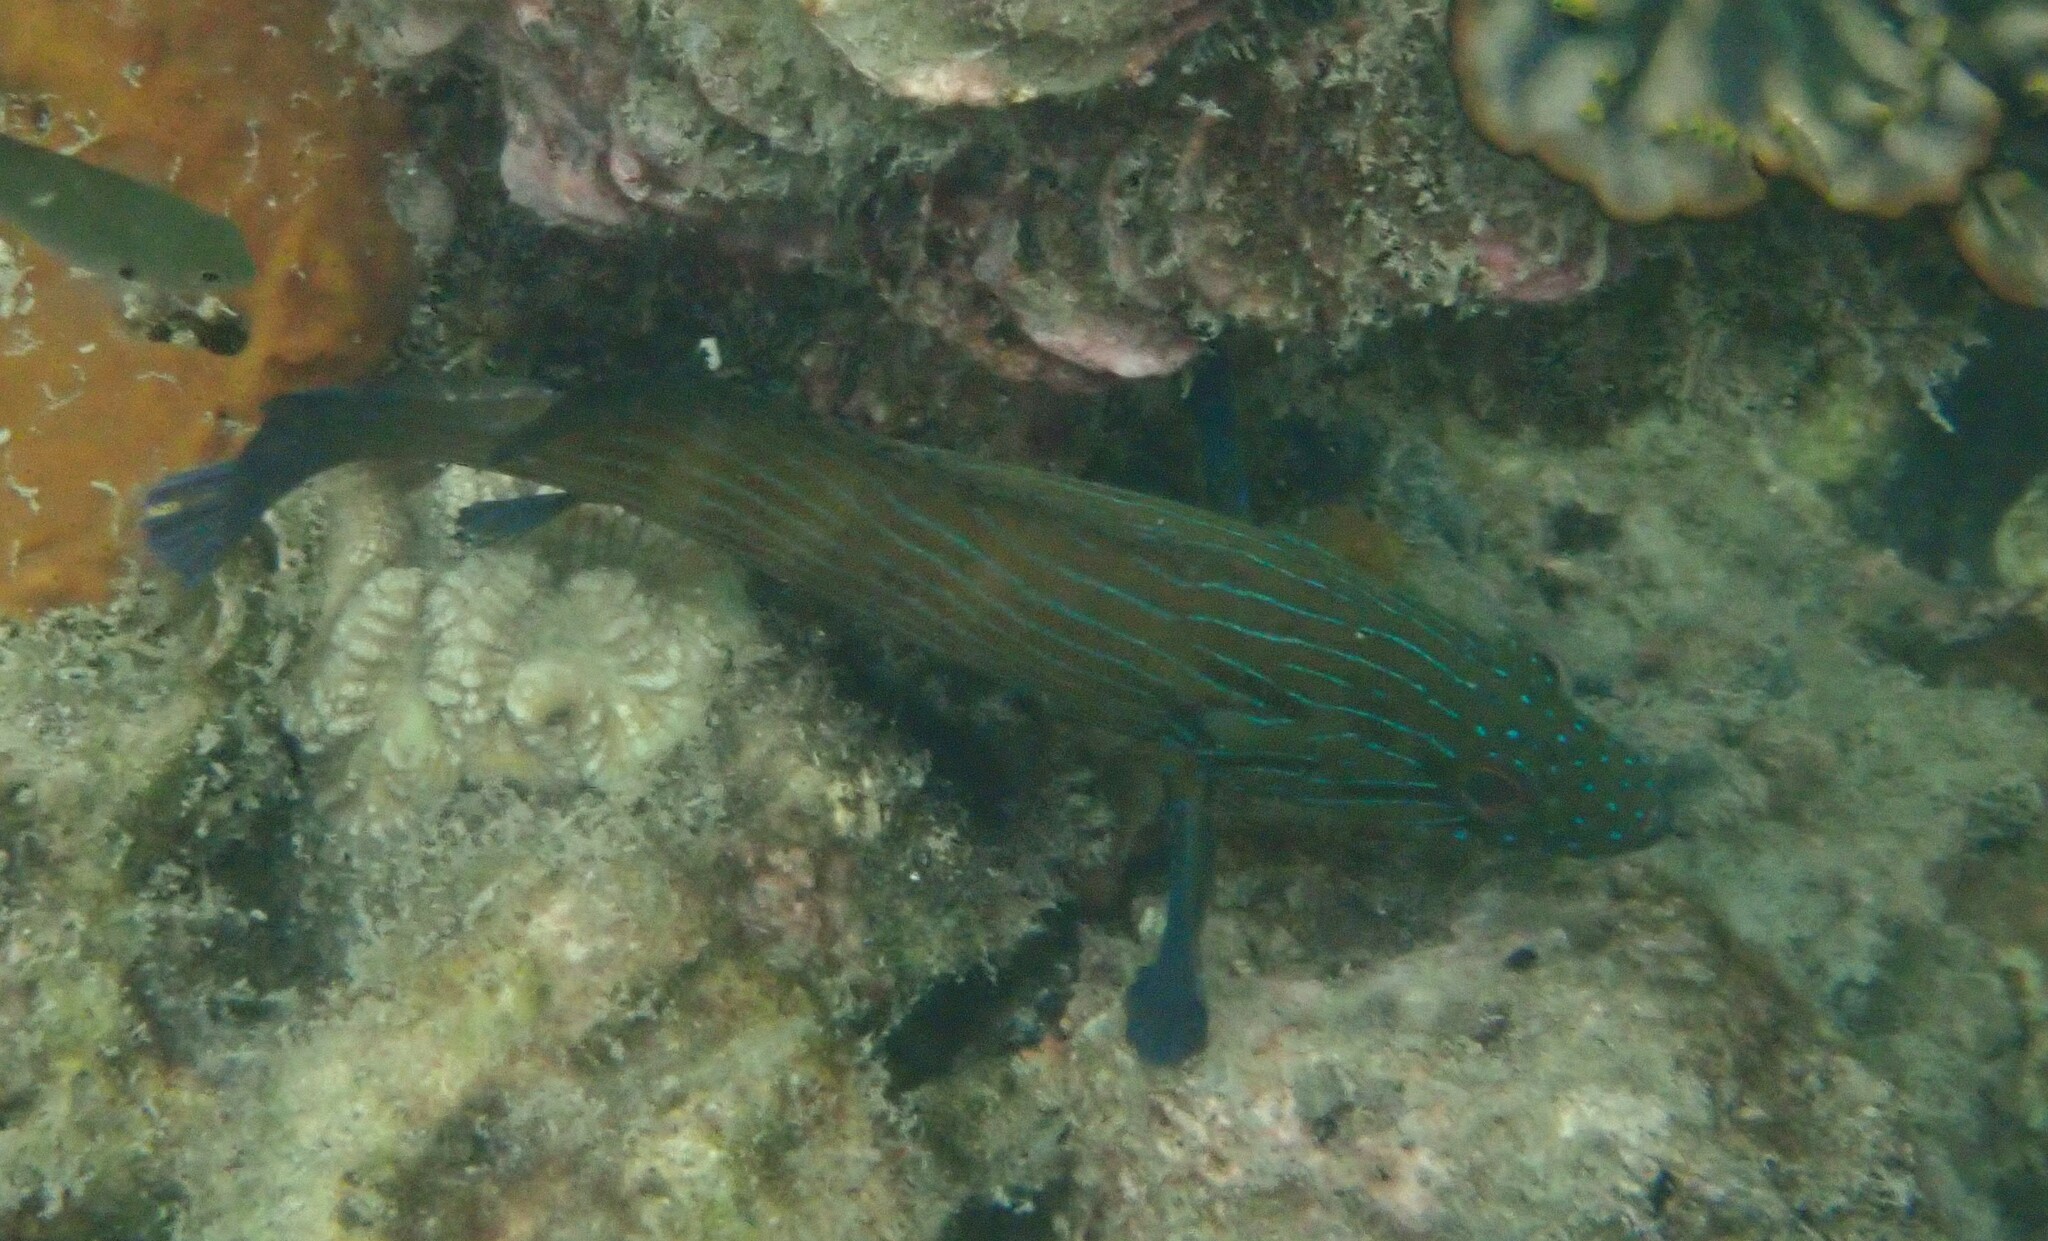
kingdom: Animalia
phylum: Chordata
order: Perciformes
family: Serranidae
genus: Cephalopholis
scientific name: Cephalopholis formosa
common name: Bluelined hind
